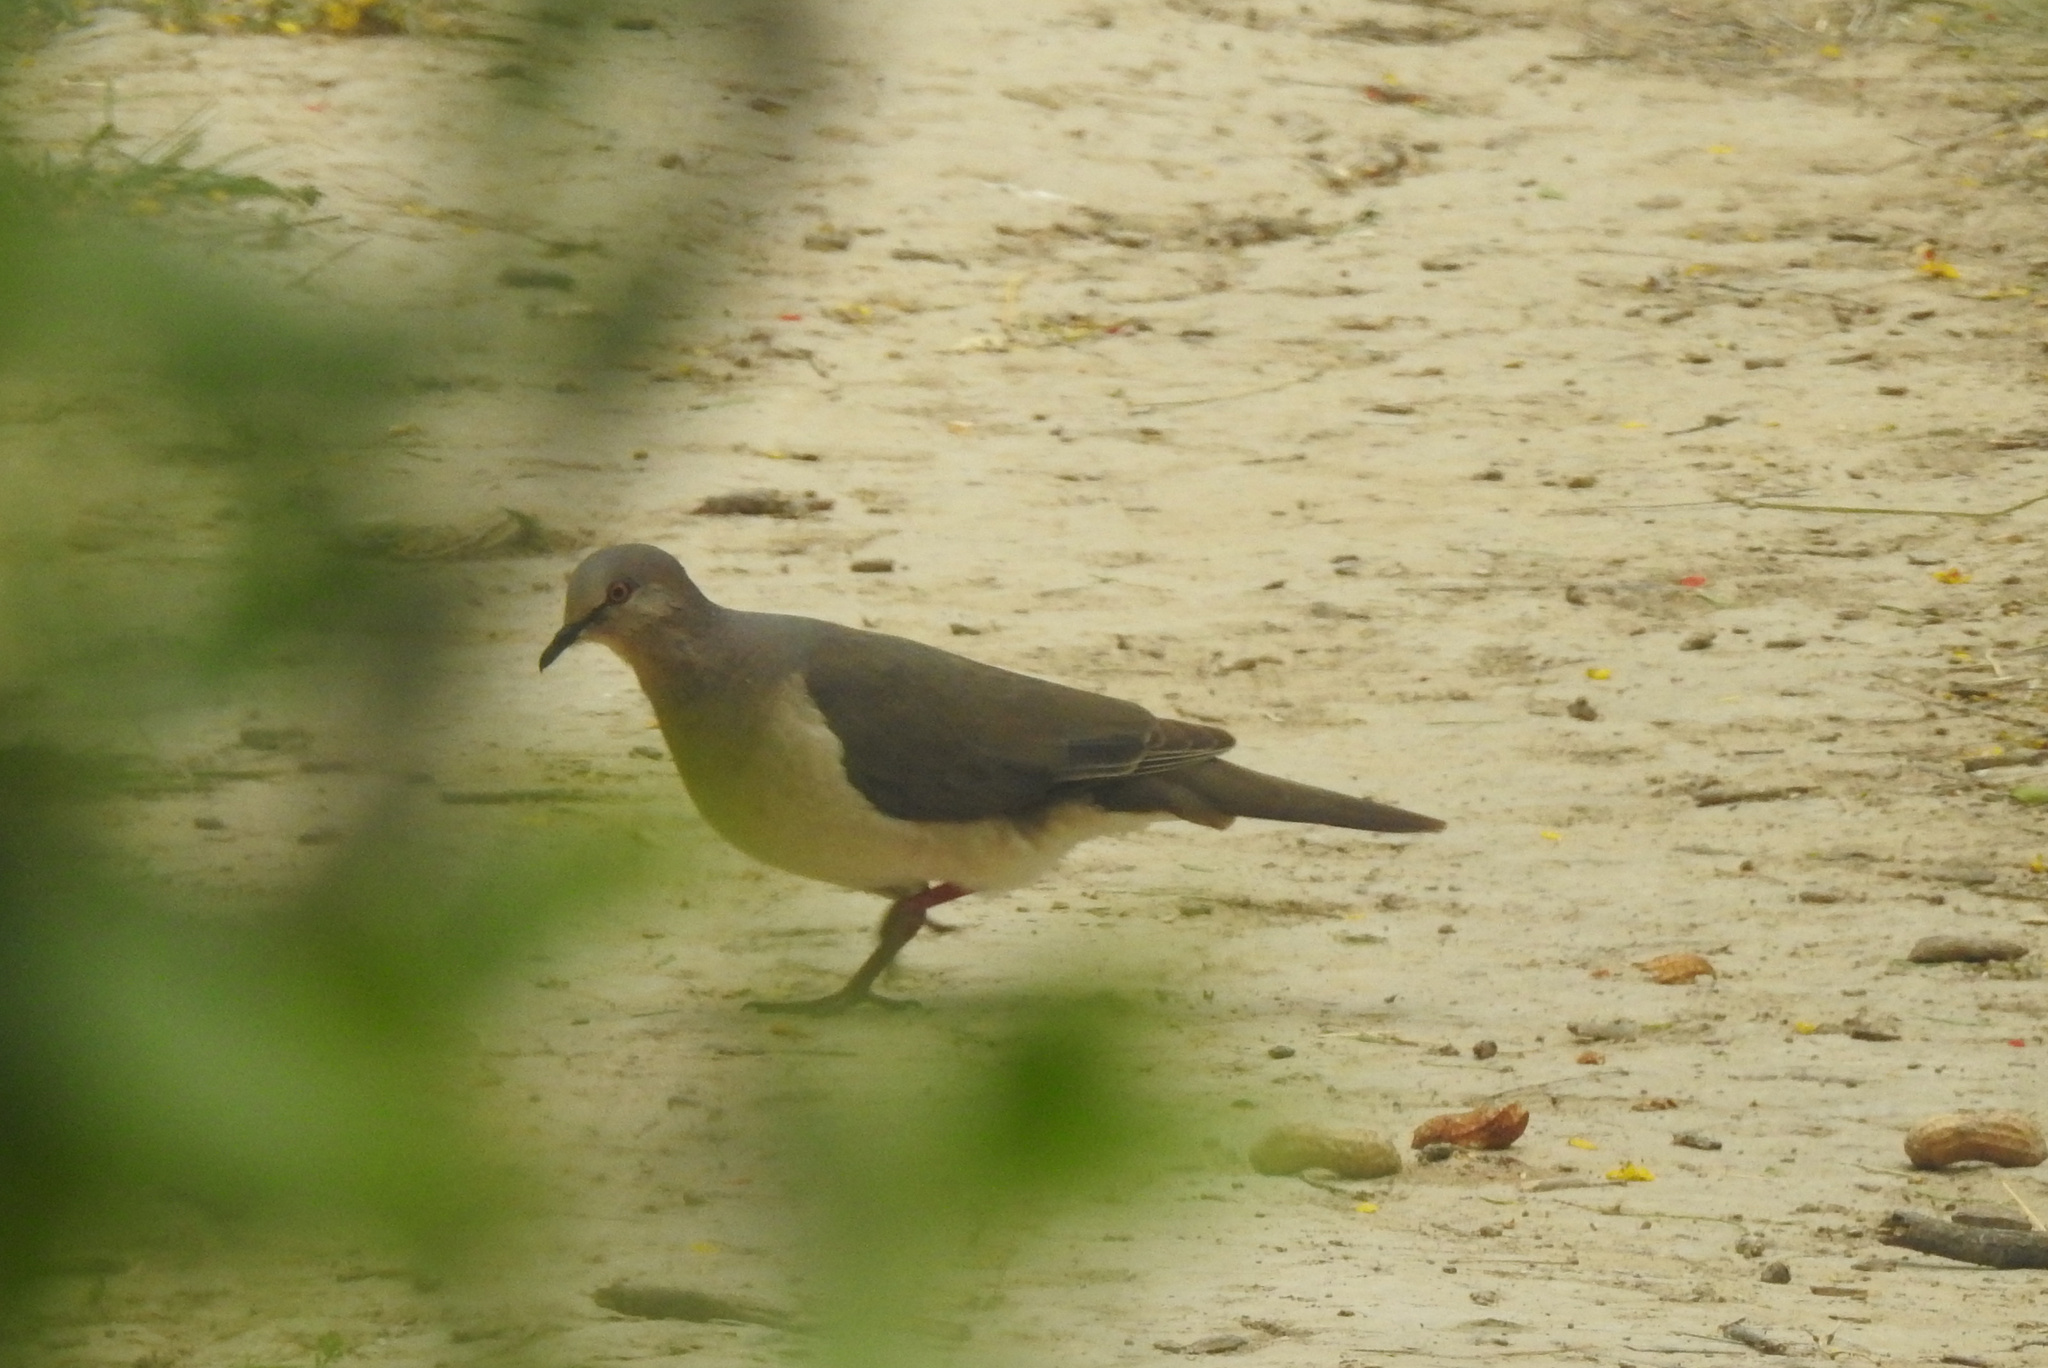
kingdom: Animalia
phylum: Chordata
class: Aves
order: Columbiformes
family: Columbidae
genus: Leptotila
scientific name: Leptotila verreauxi
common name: White-tipped dove
